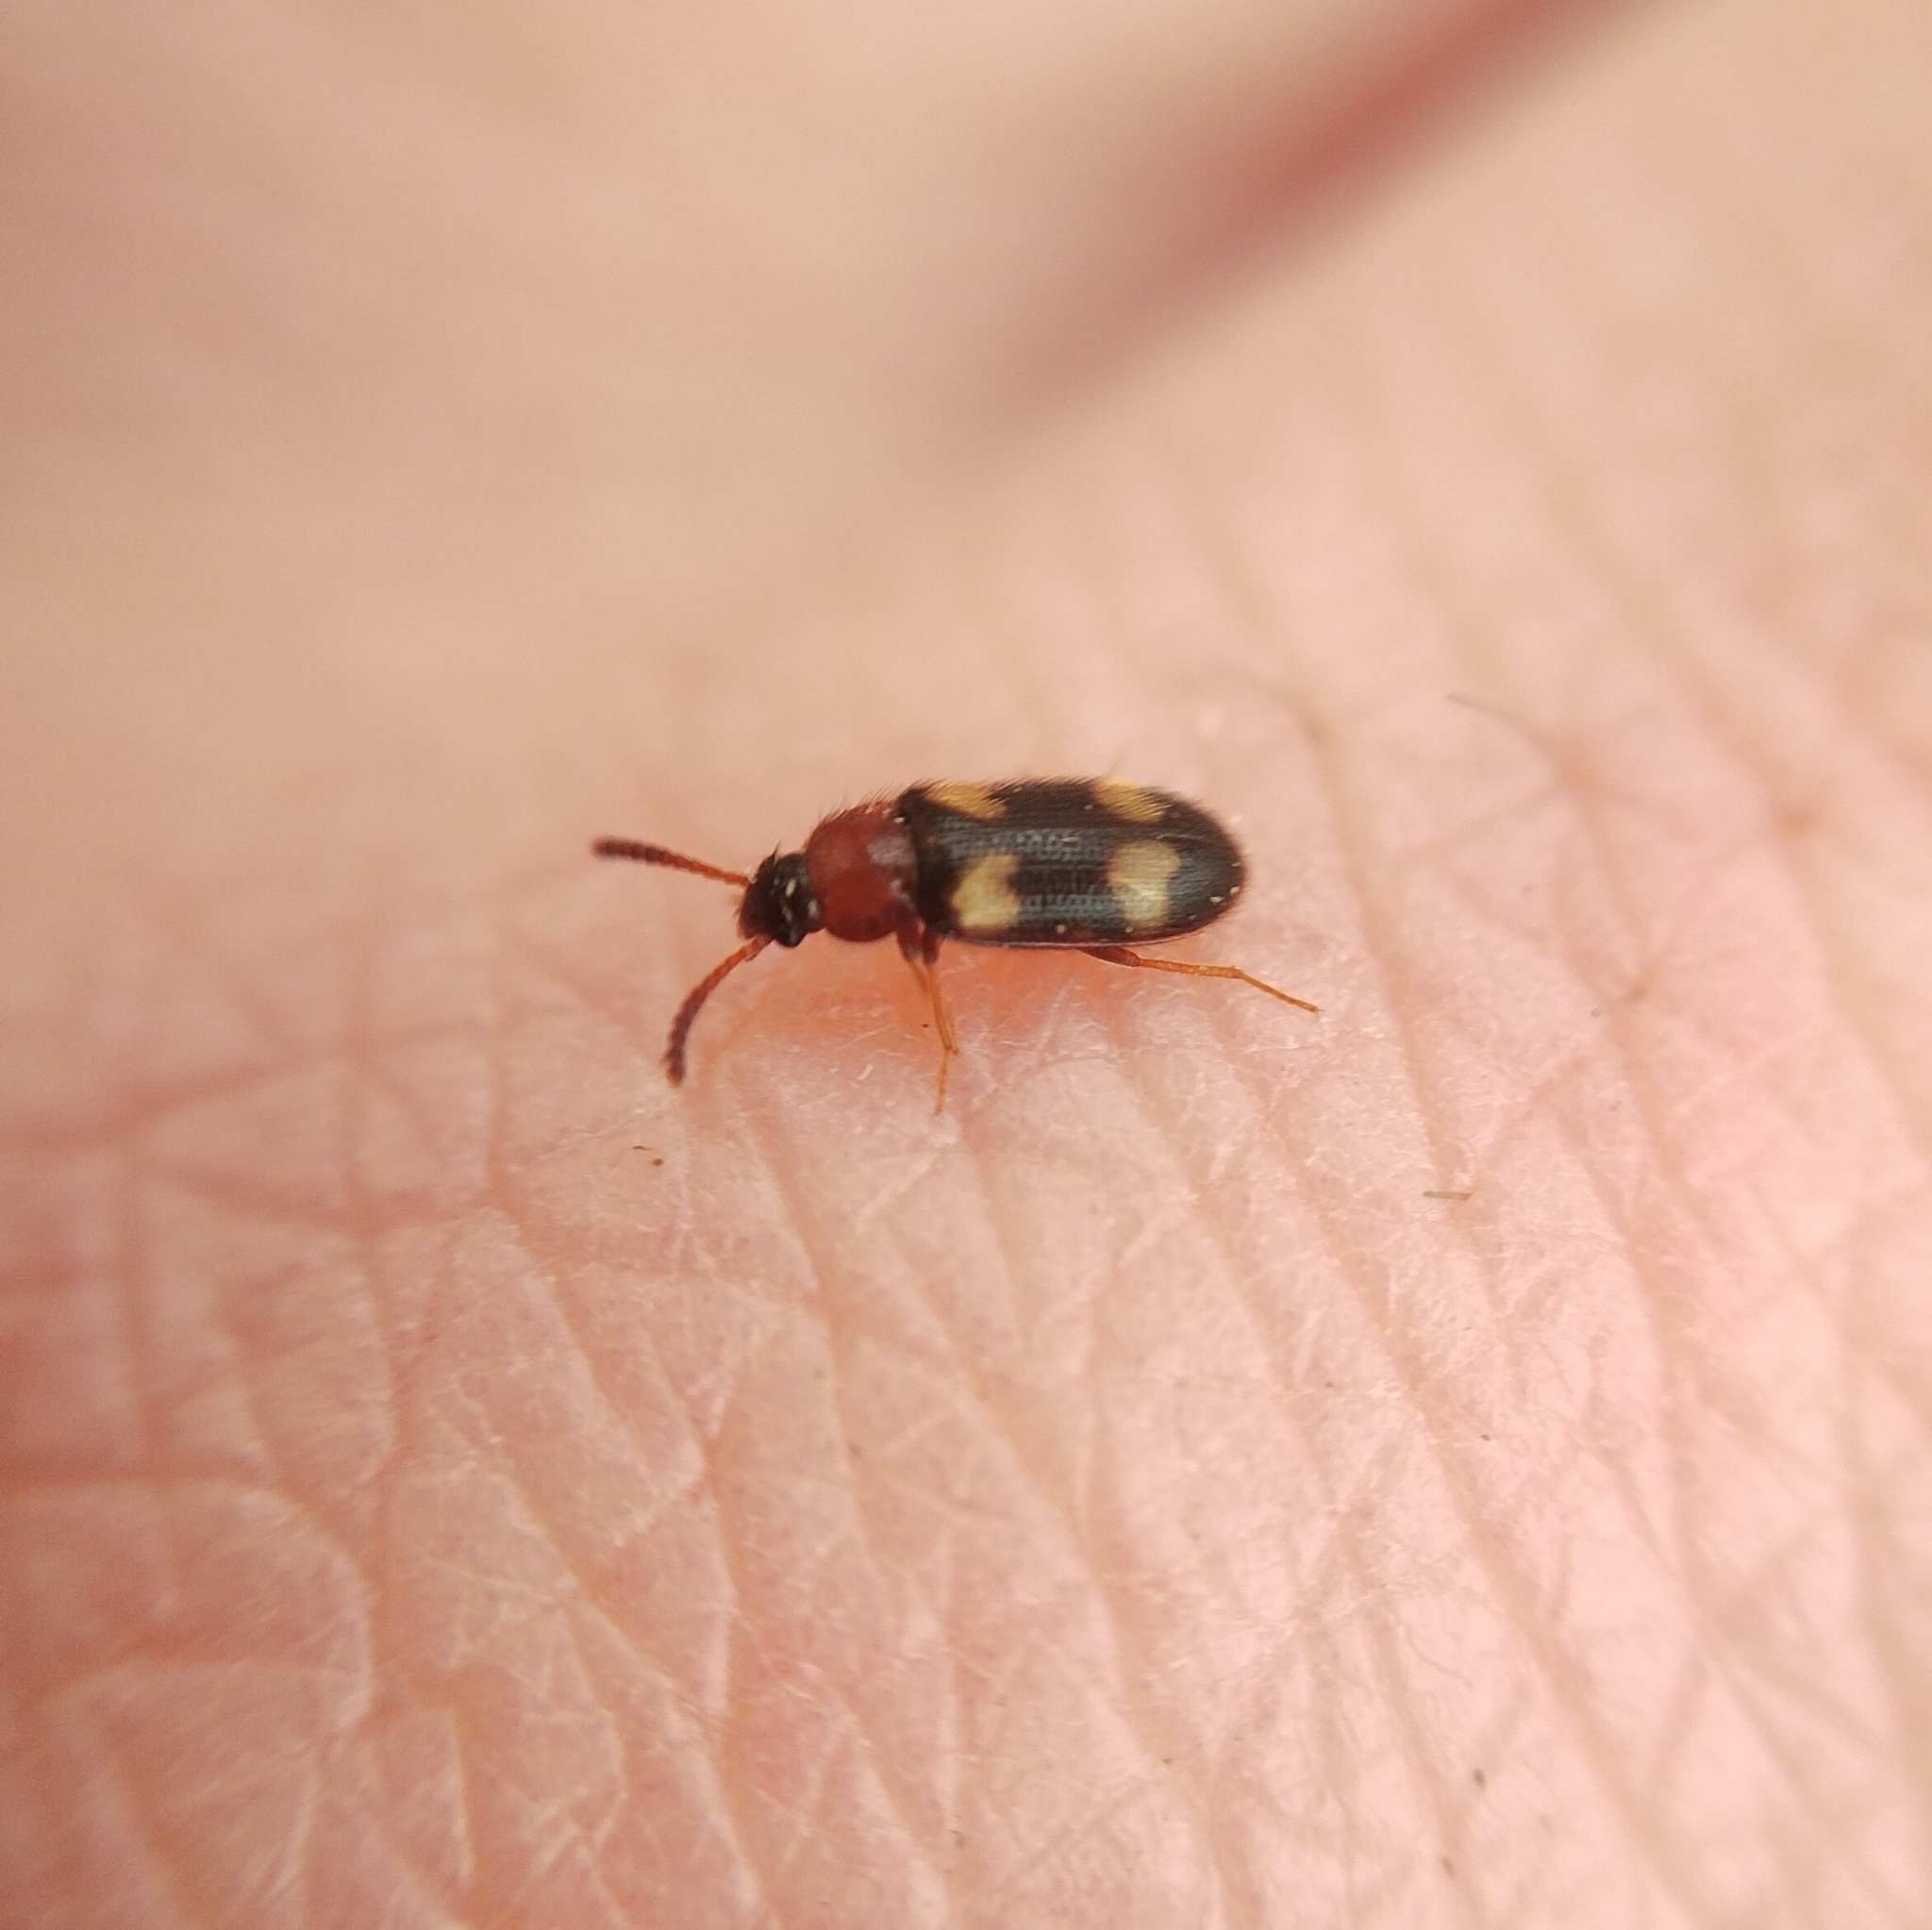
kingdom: Animalia
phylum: Arthropoda
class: Insecta
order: Coleoptera
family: Mycetophagidae
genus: Mycetophagus
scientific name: Mycetophagus fulvicollis
